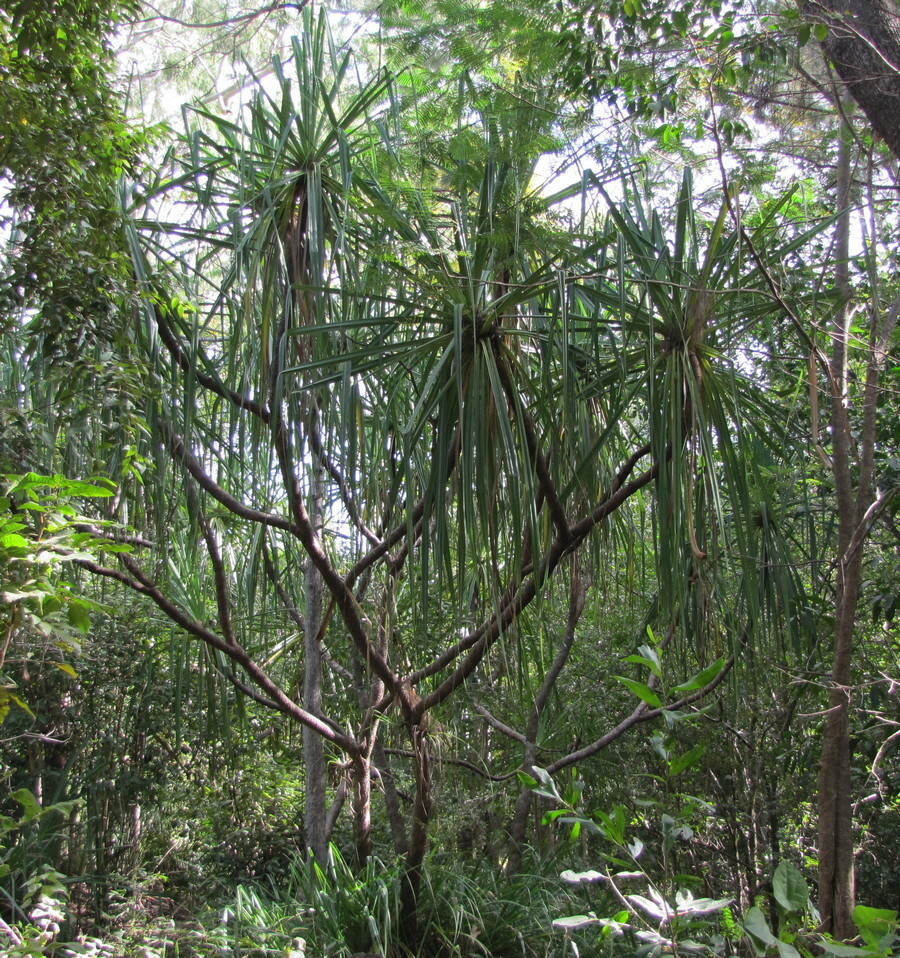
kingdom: Plantae
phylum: Tracheophyta
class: Liliopsida
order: Pandanales
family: Pandanaceae
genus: Pandanus
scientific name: Pandanus cookii
